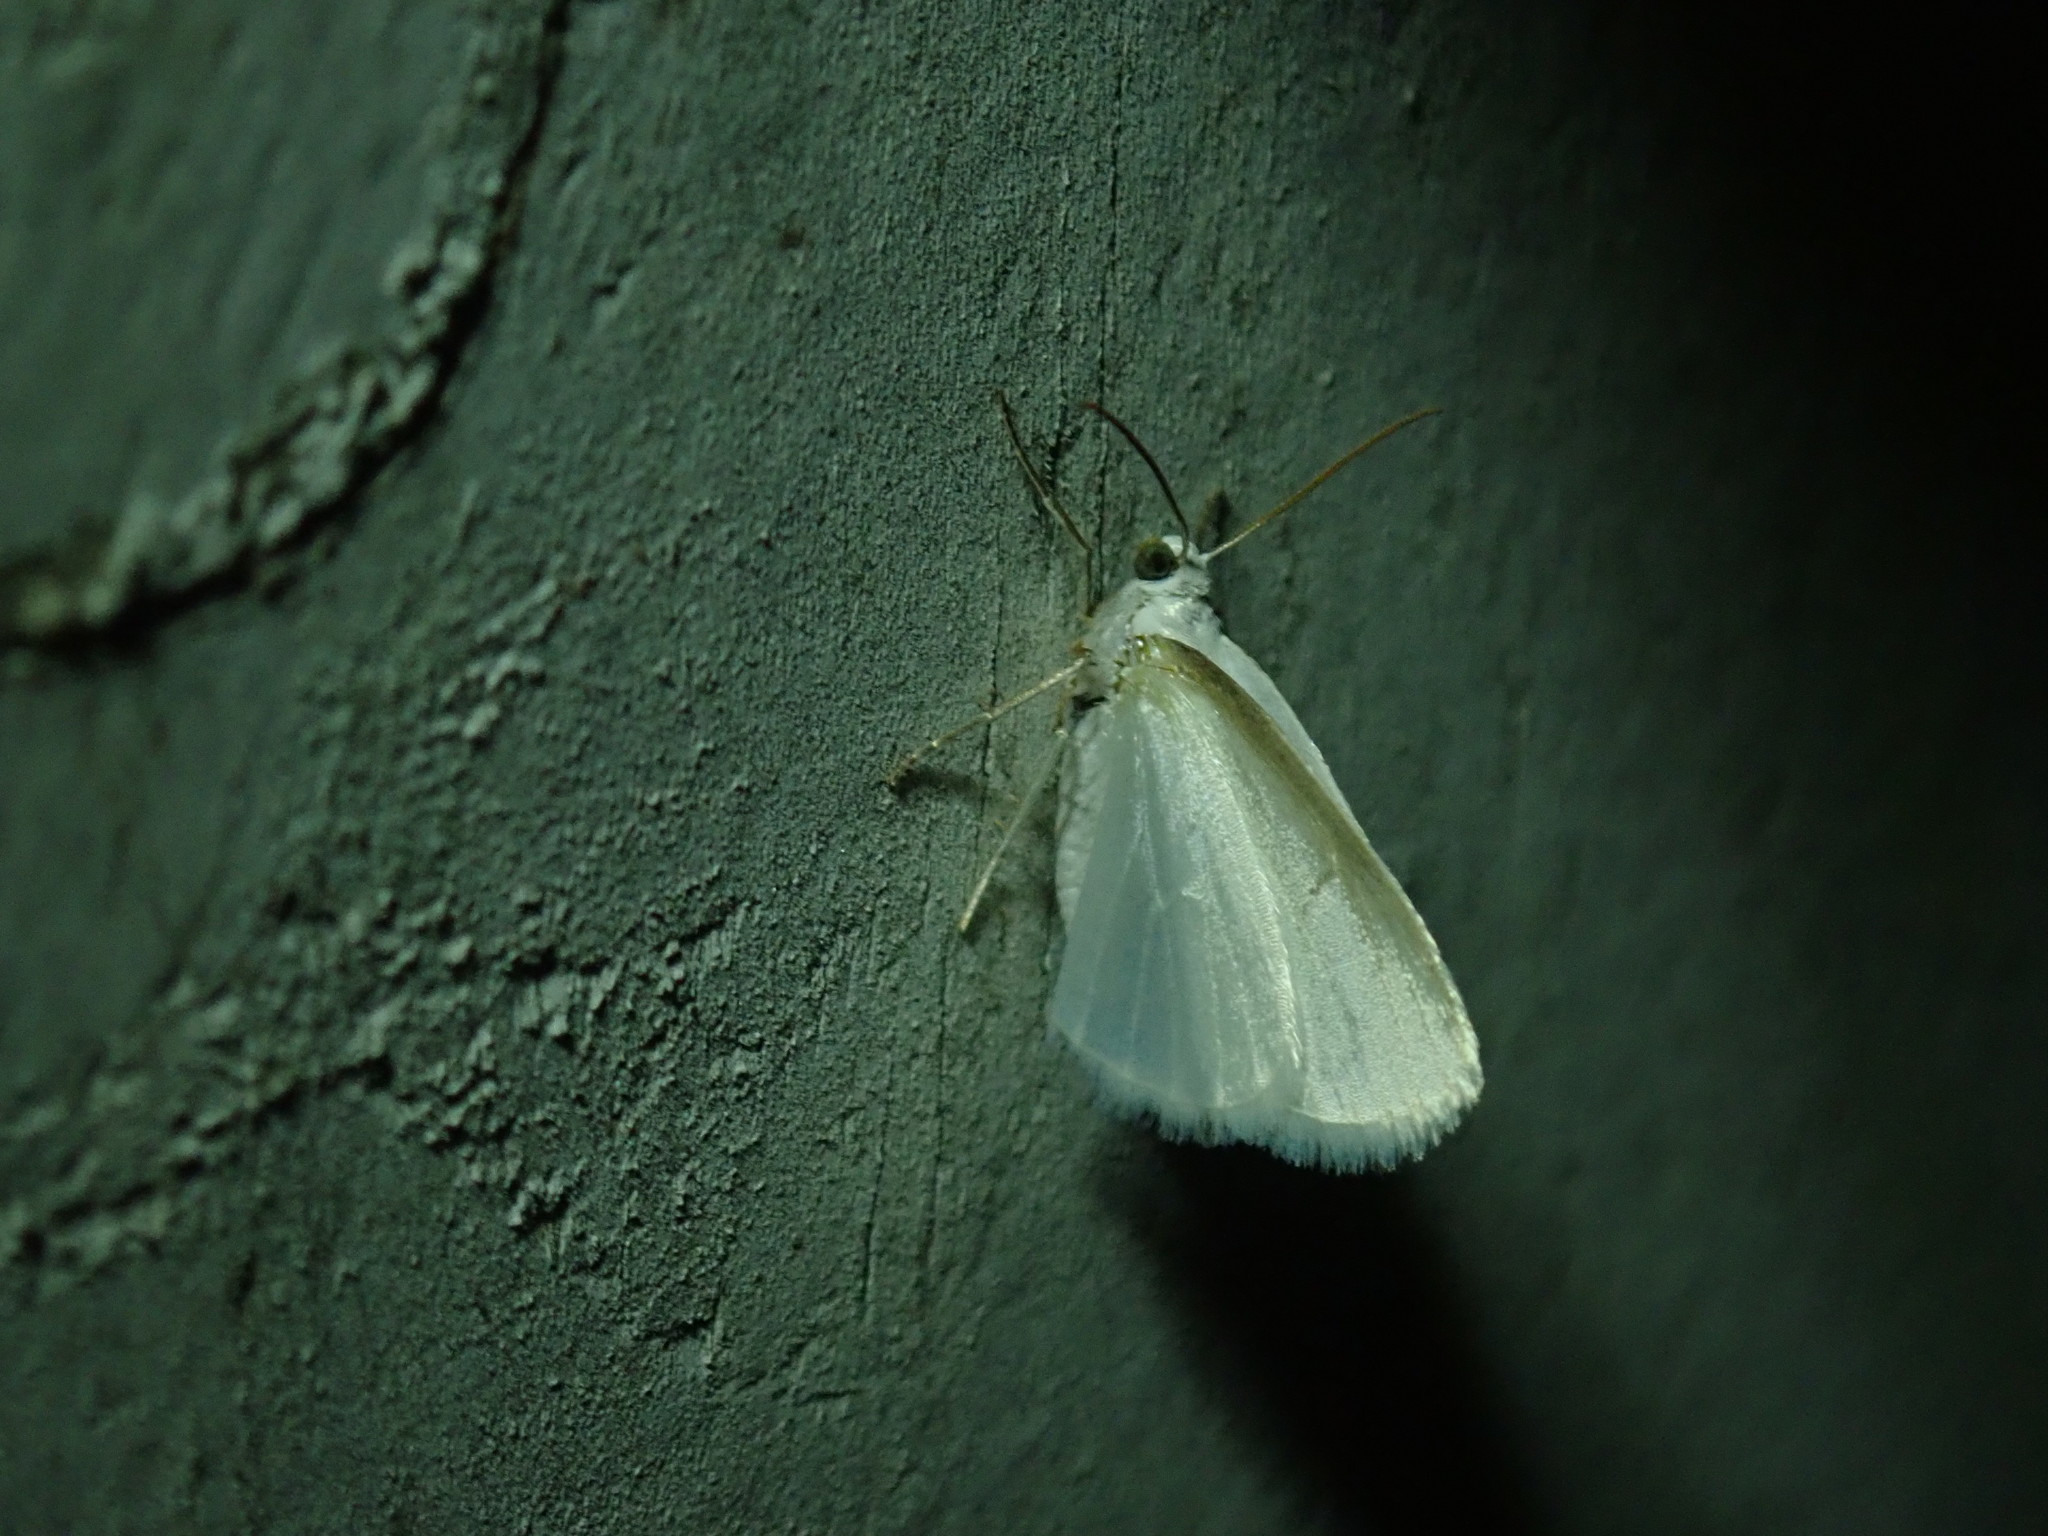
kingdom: Animalia
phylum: Arthropoda
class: Insecta
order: Lepidoptera
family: Geometridae
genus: Lomographa
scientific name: Lomographa vestaliata
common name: White spring moth
